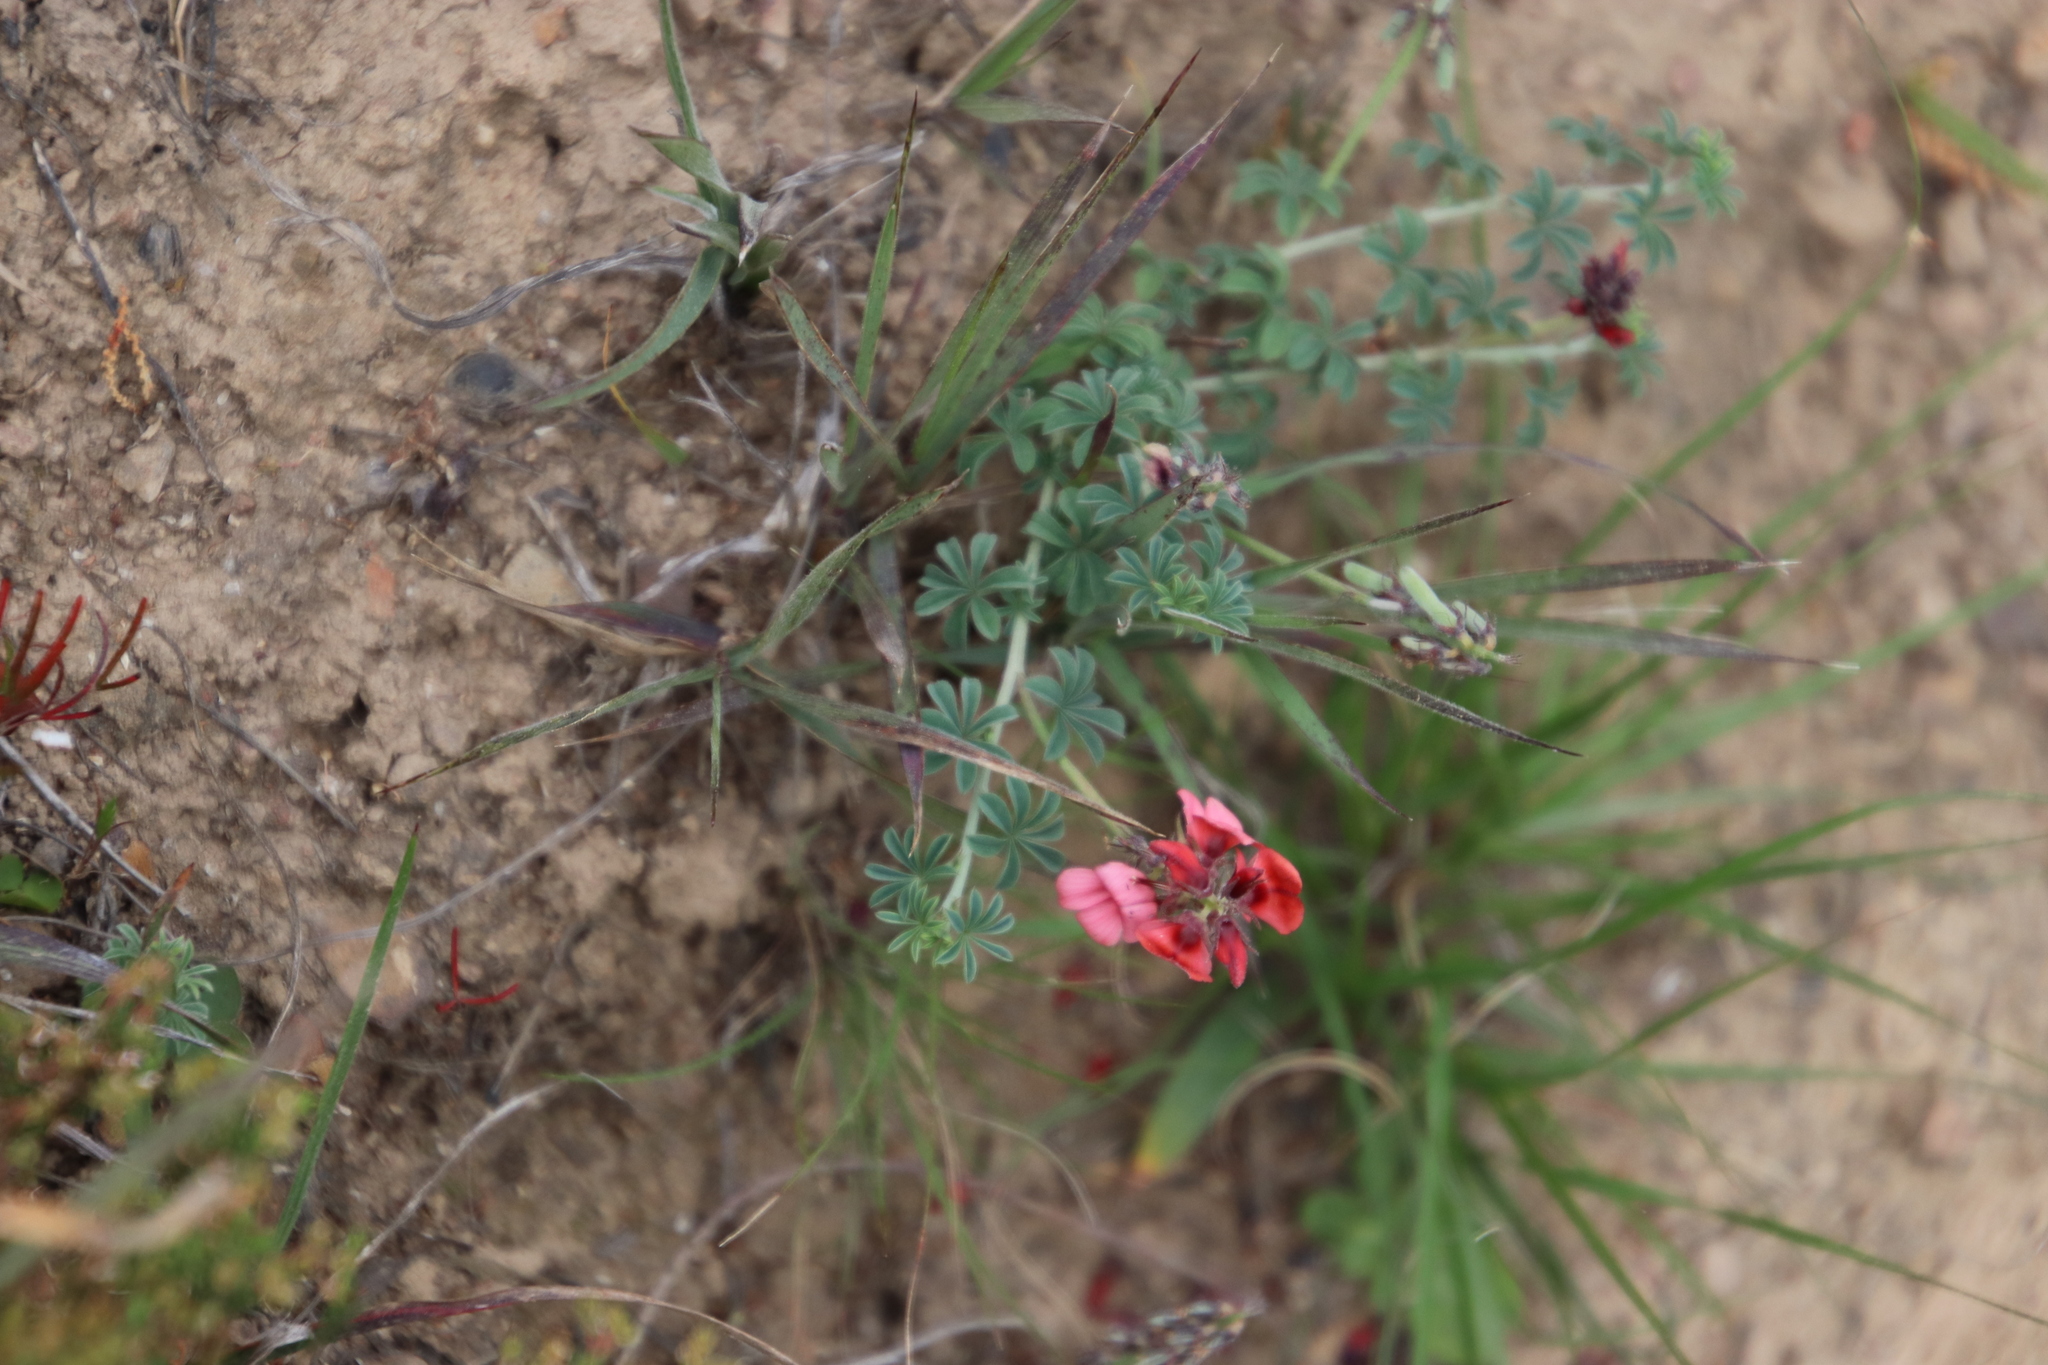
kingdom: Plantae
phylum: Tracheophyta
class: Magnoliopsida
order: Fabales
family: Fabaceae
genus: Indigofera
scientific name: Indigofera digitata
